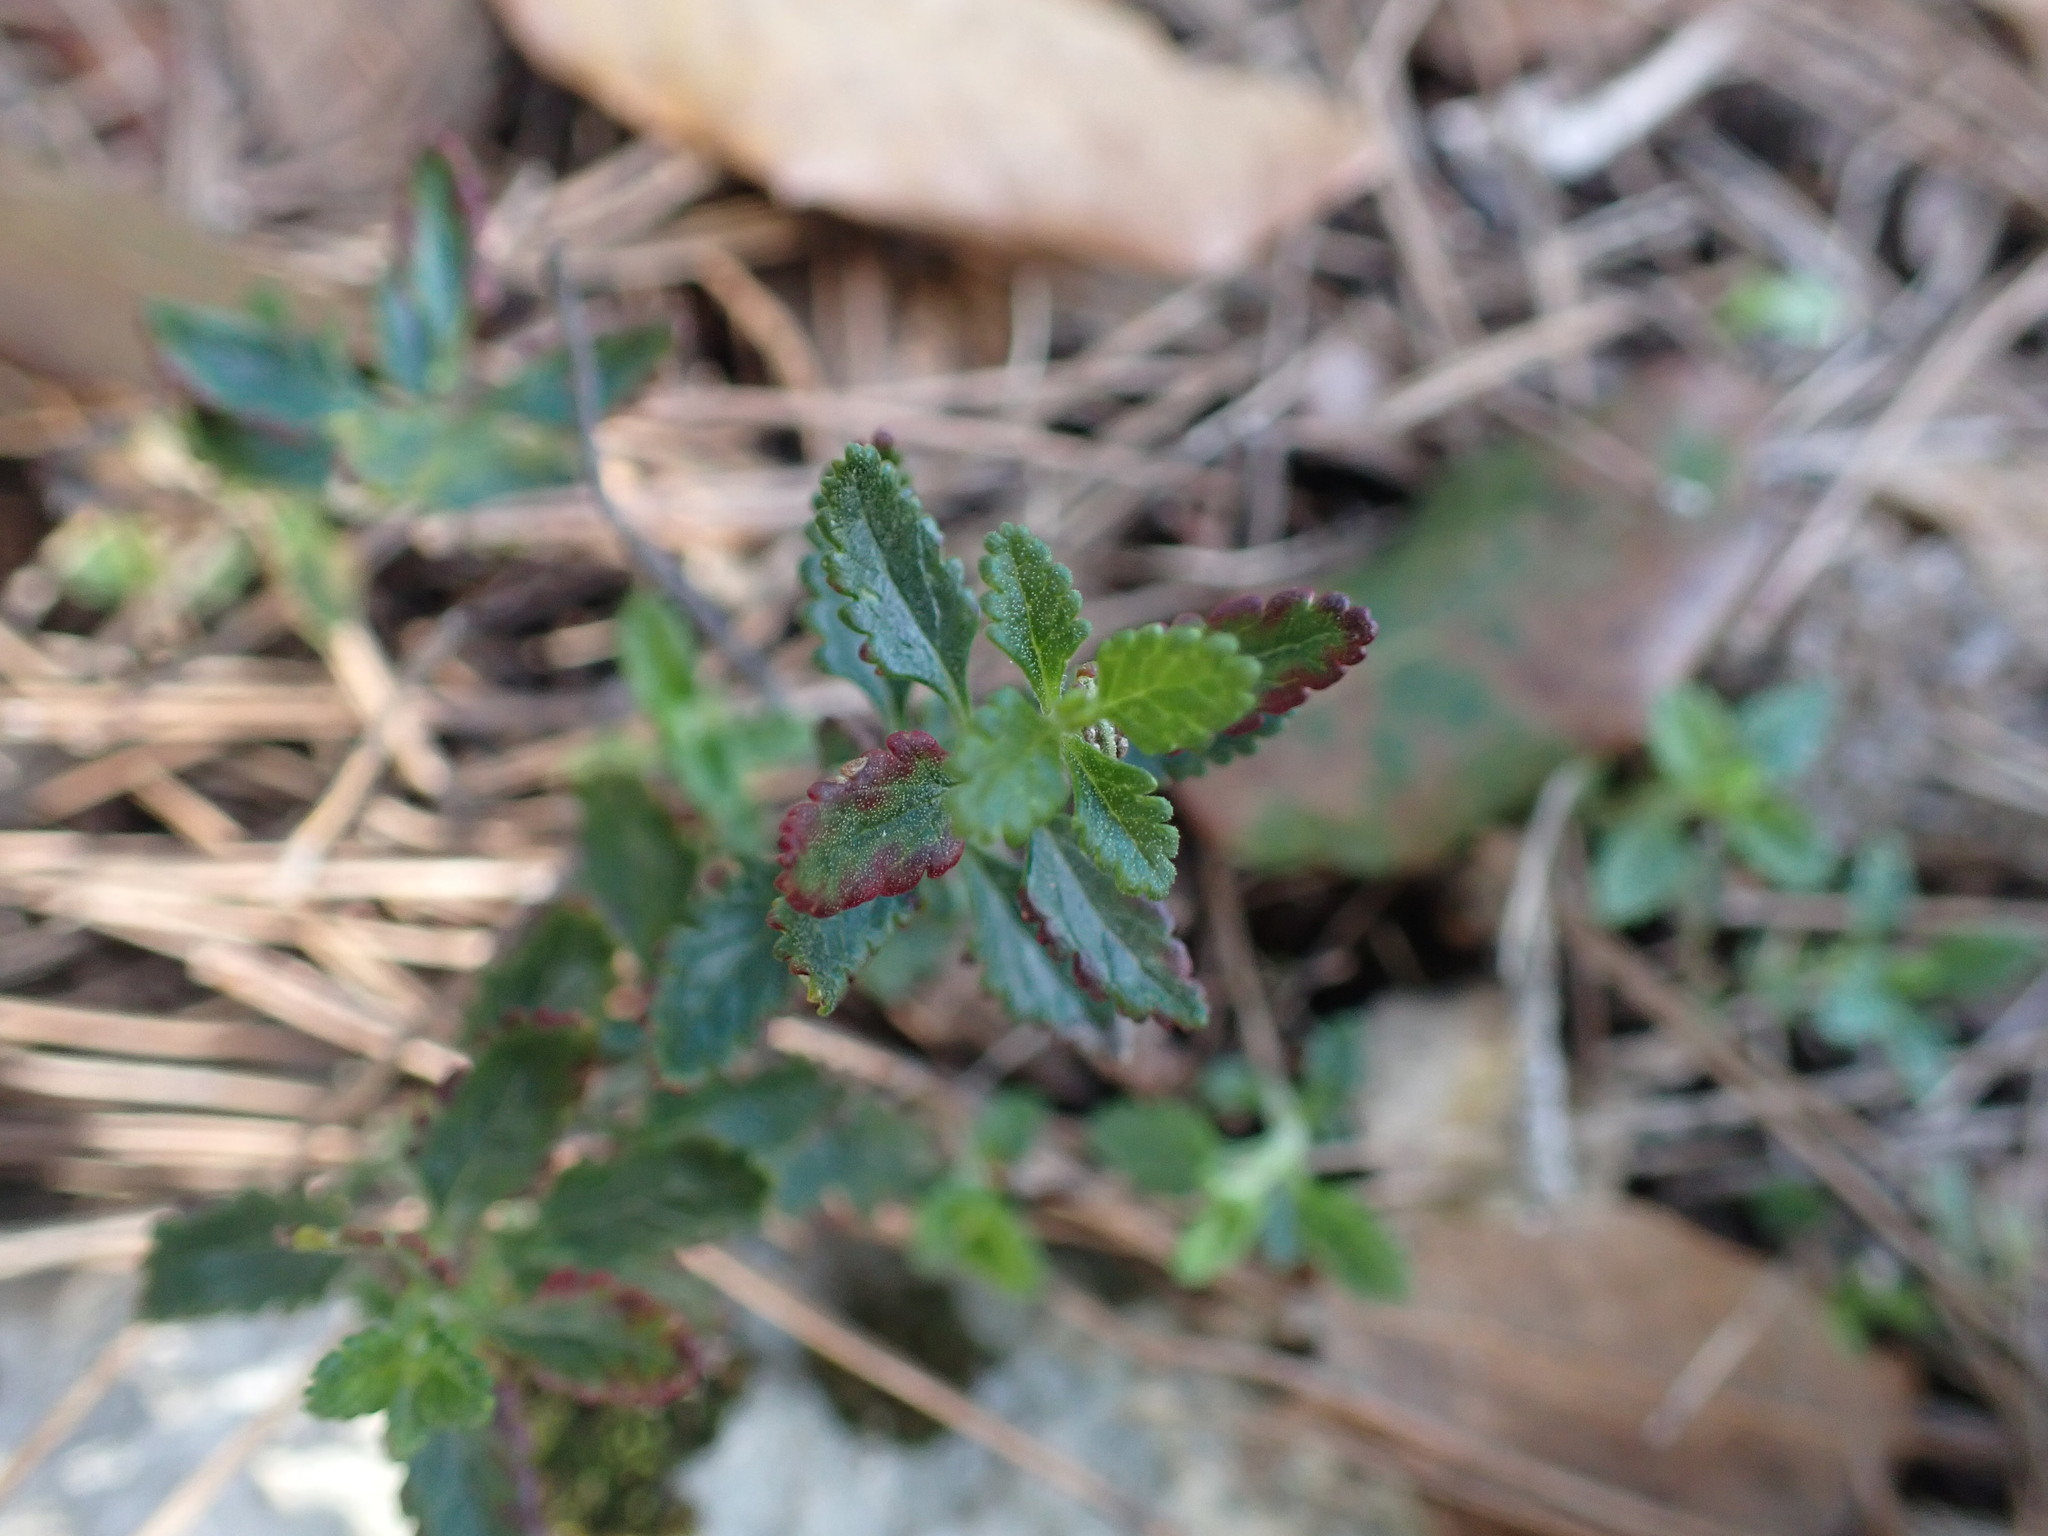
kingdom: Plantae
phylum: Tracheophyta
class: Magnoliopsida
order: Lamiales
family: Lamiaceae
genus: Teucrium
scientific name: Teucrium chamaedrys
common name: Wall germander
